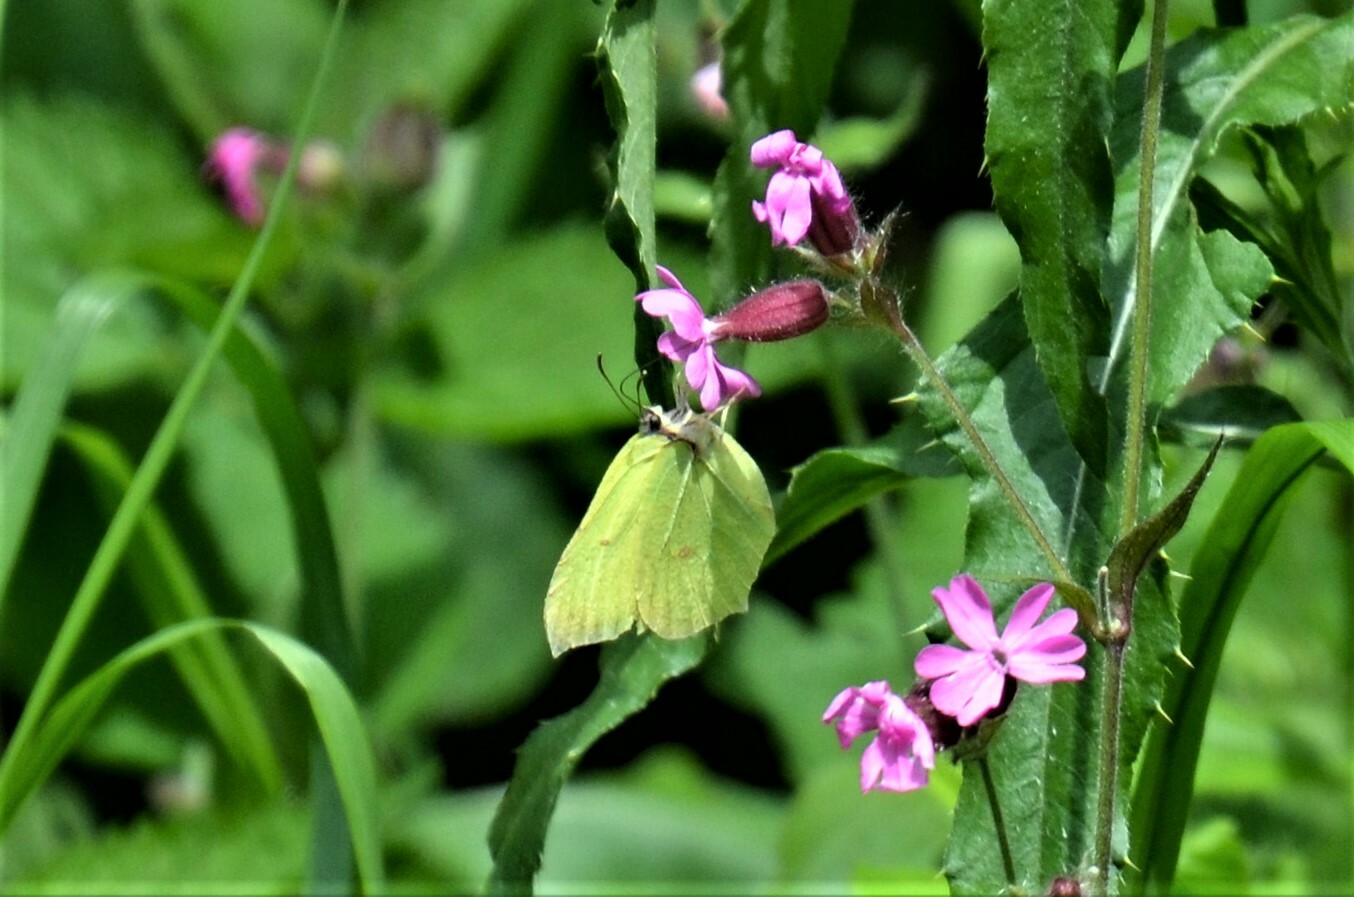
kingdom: Animalia
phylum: Arthropoda
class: Insecta
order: Lepidoptera
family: Pieridae
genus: Gonepteryx
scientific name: Gonepteryx rhamni
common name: Brimstone
